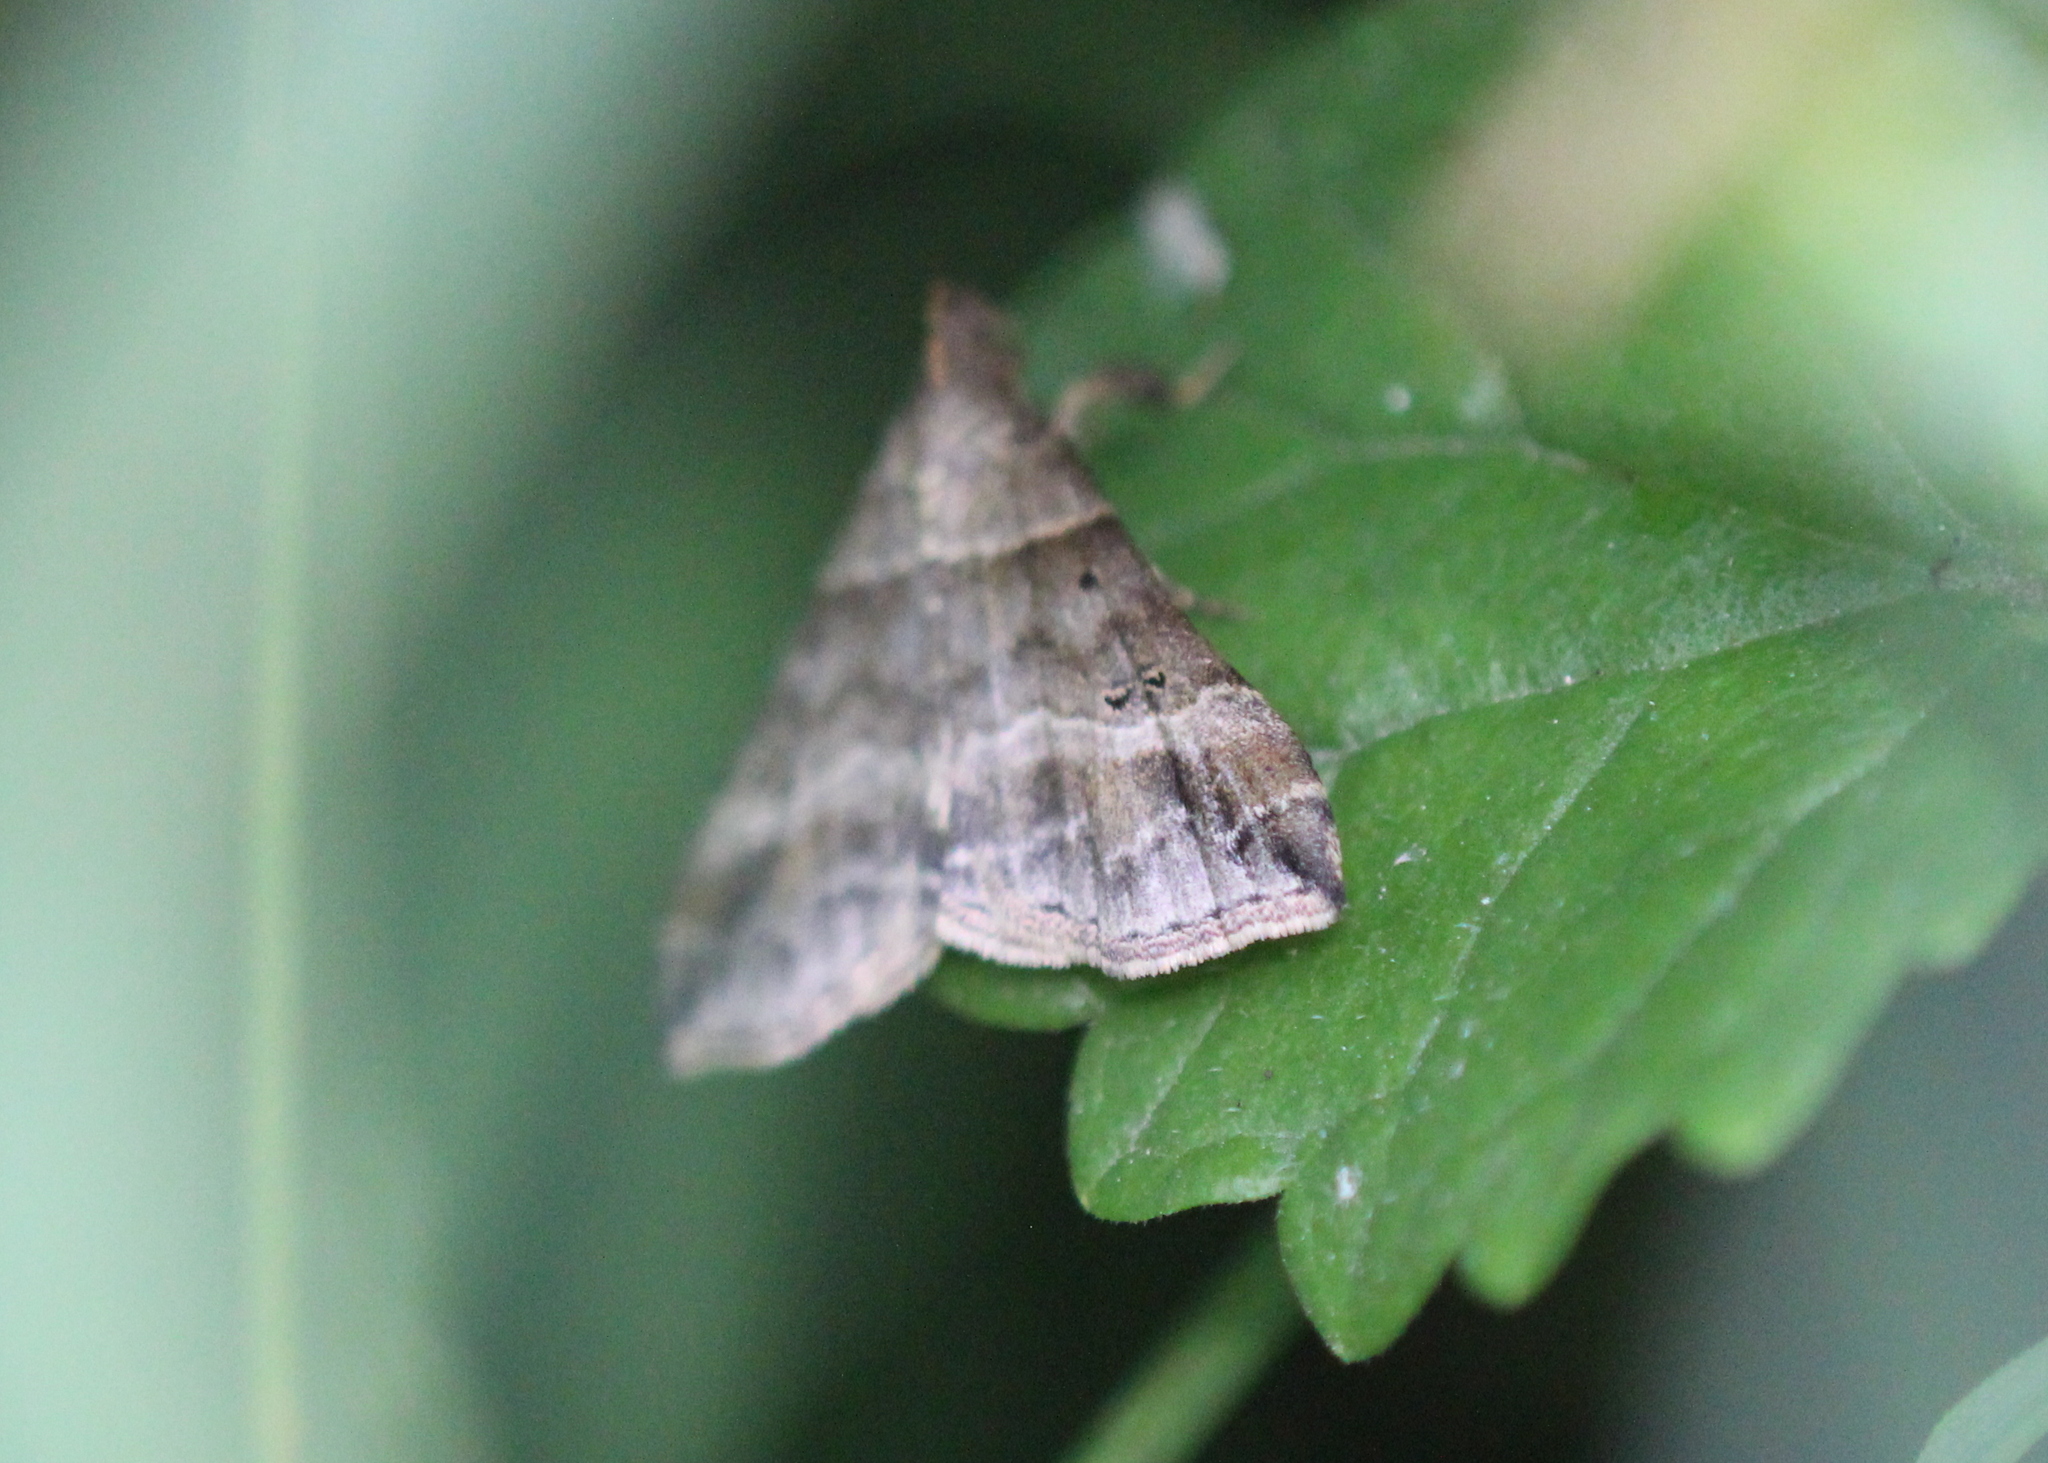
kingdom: Animalia
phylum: Arthropoda
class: Insecta
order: Lepidoptera
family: Erebidae
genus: Phaeolita
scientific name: Phaeolita pyramusalis
